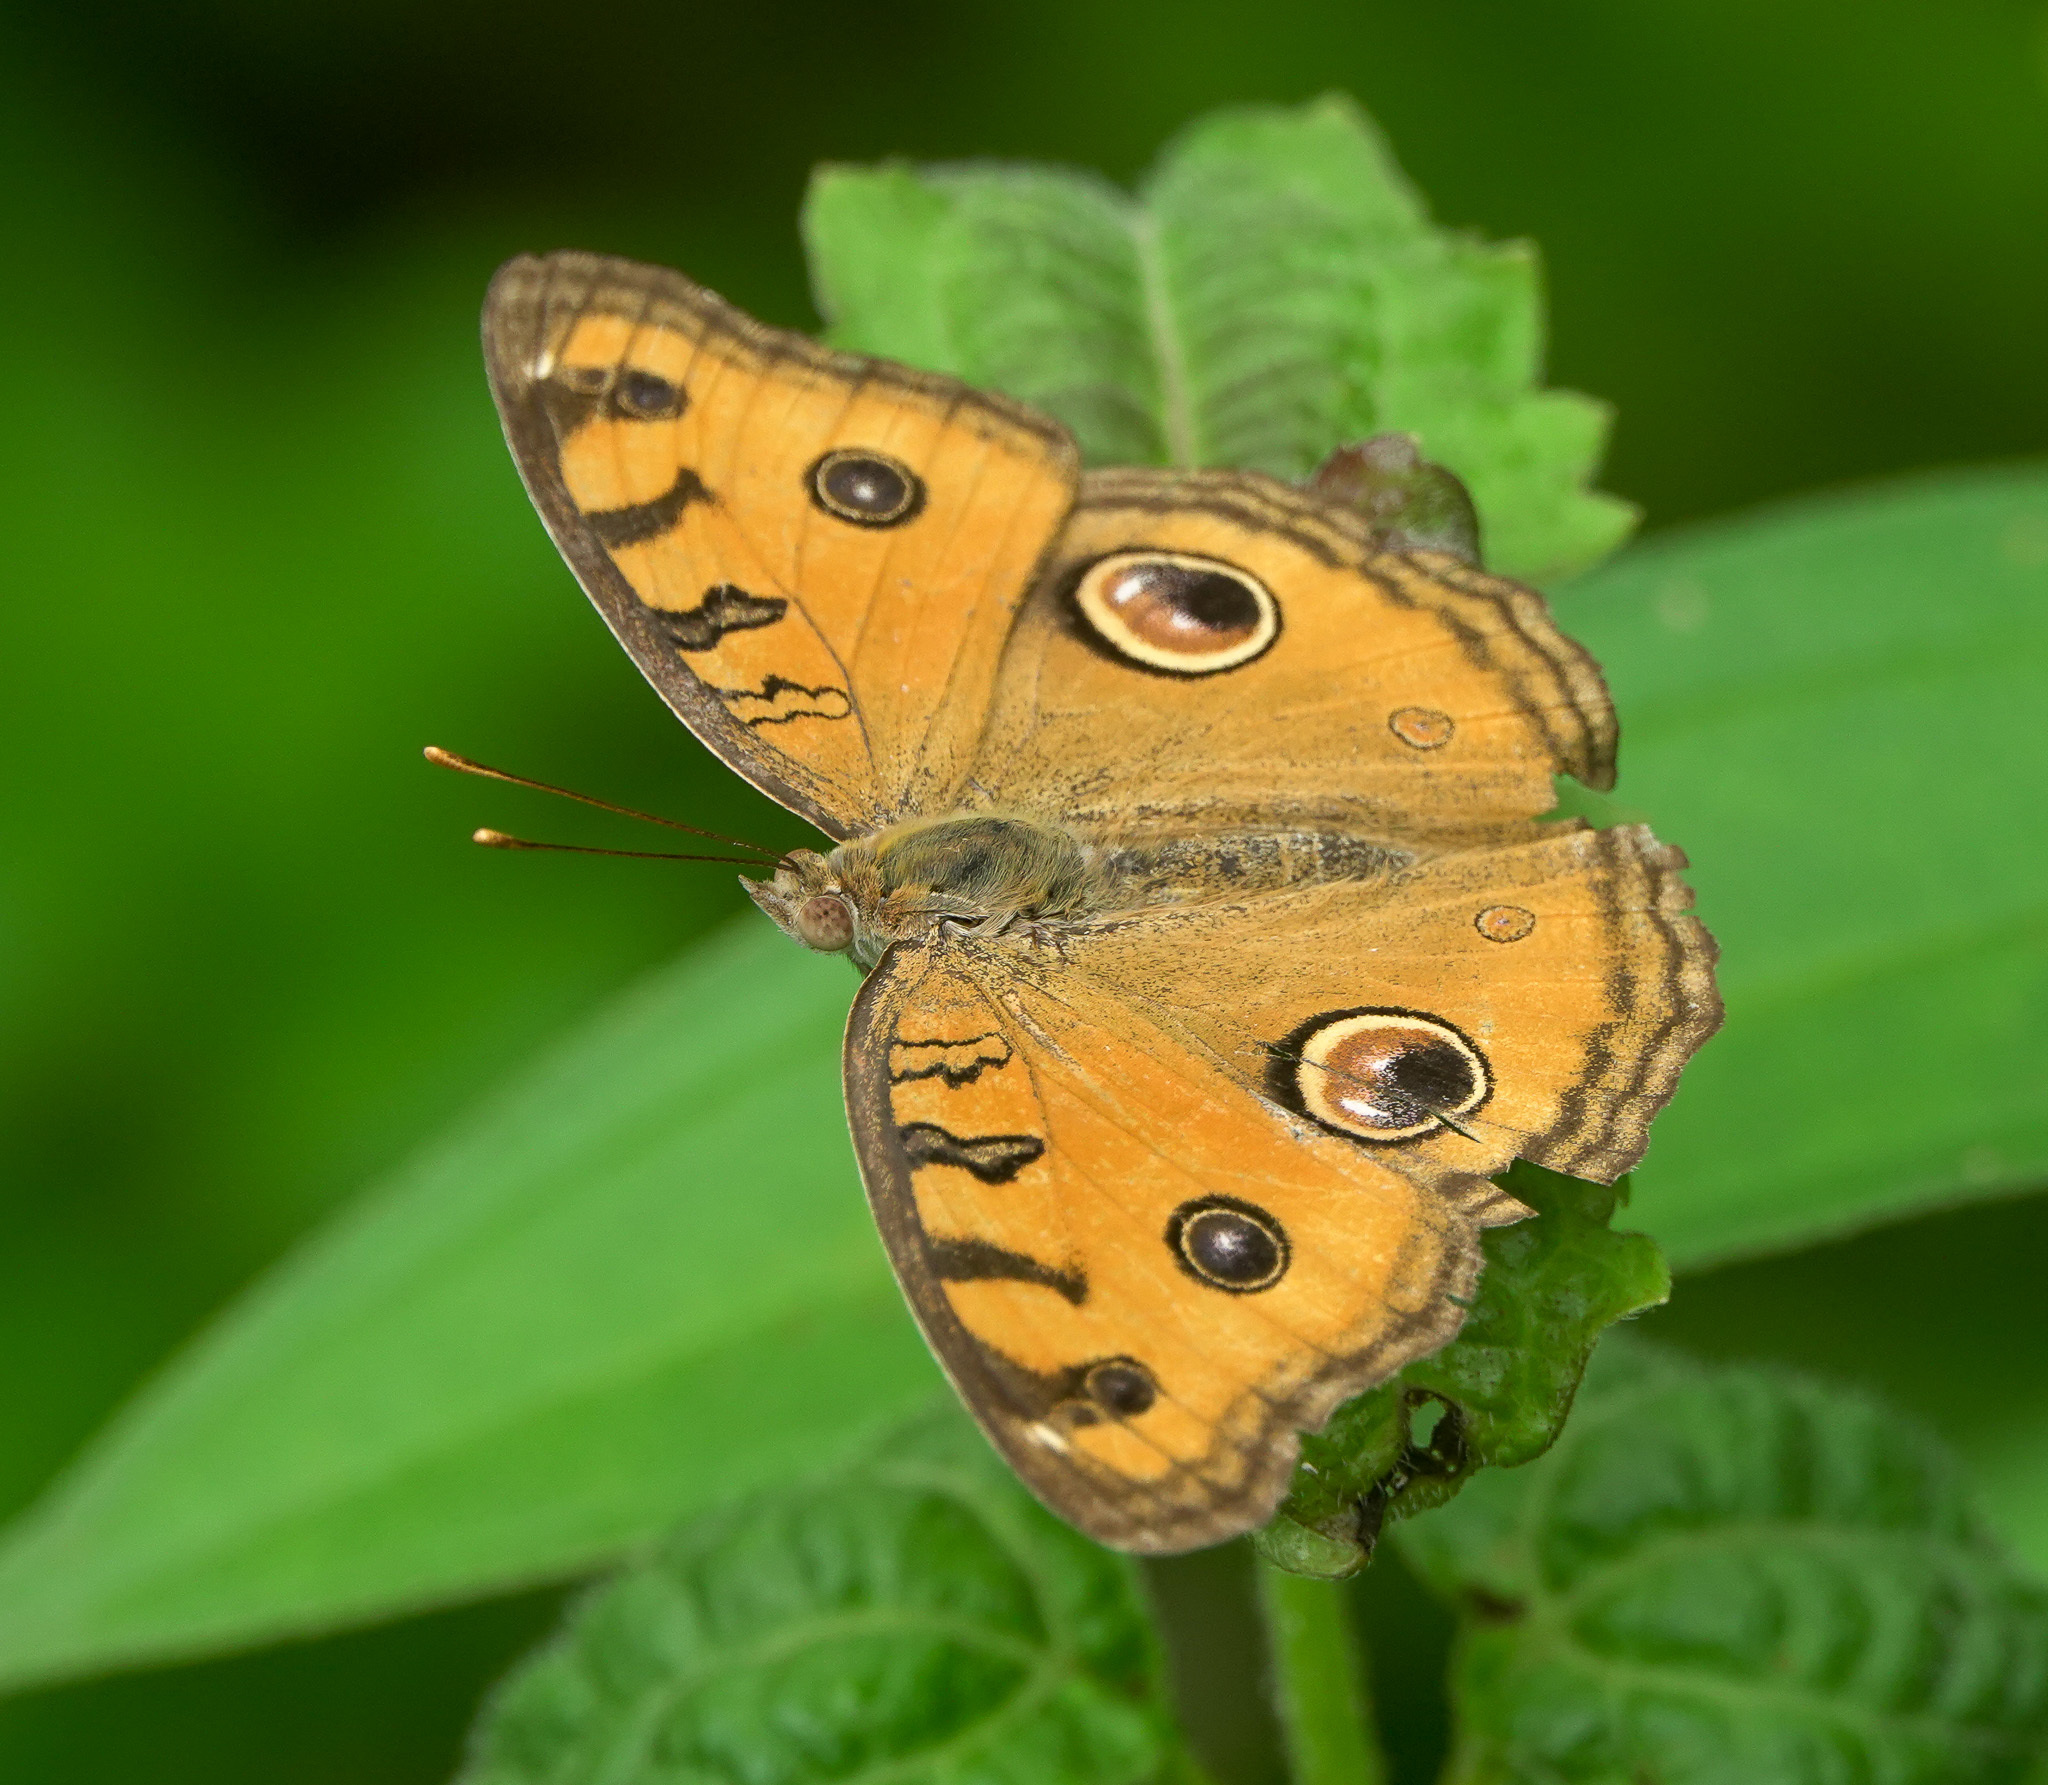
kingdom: Animalia
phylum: Arthropoda
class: Insecta
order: Lepidoptera
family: Nymphalidae
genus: Junonia
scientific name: Junonia almana
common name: Peacock pansy
